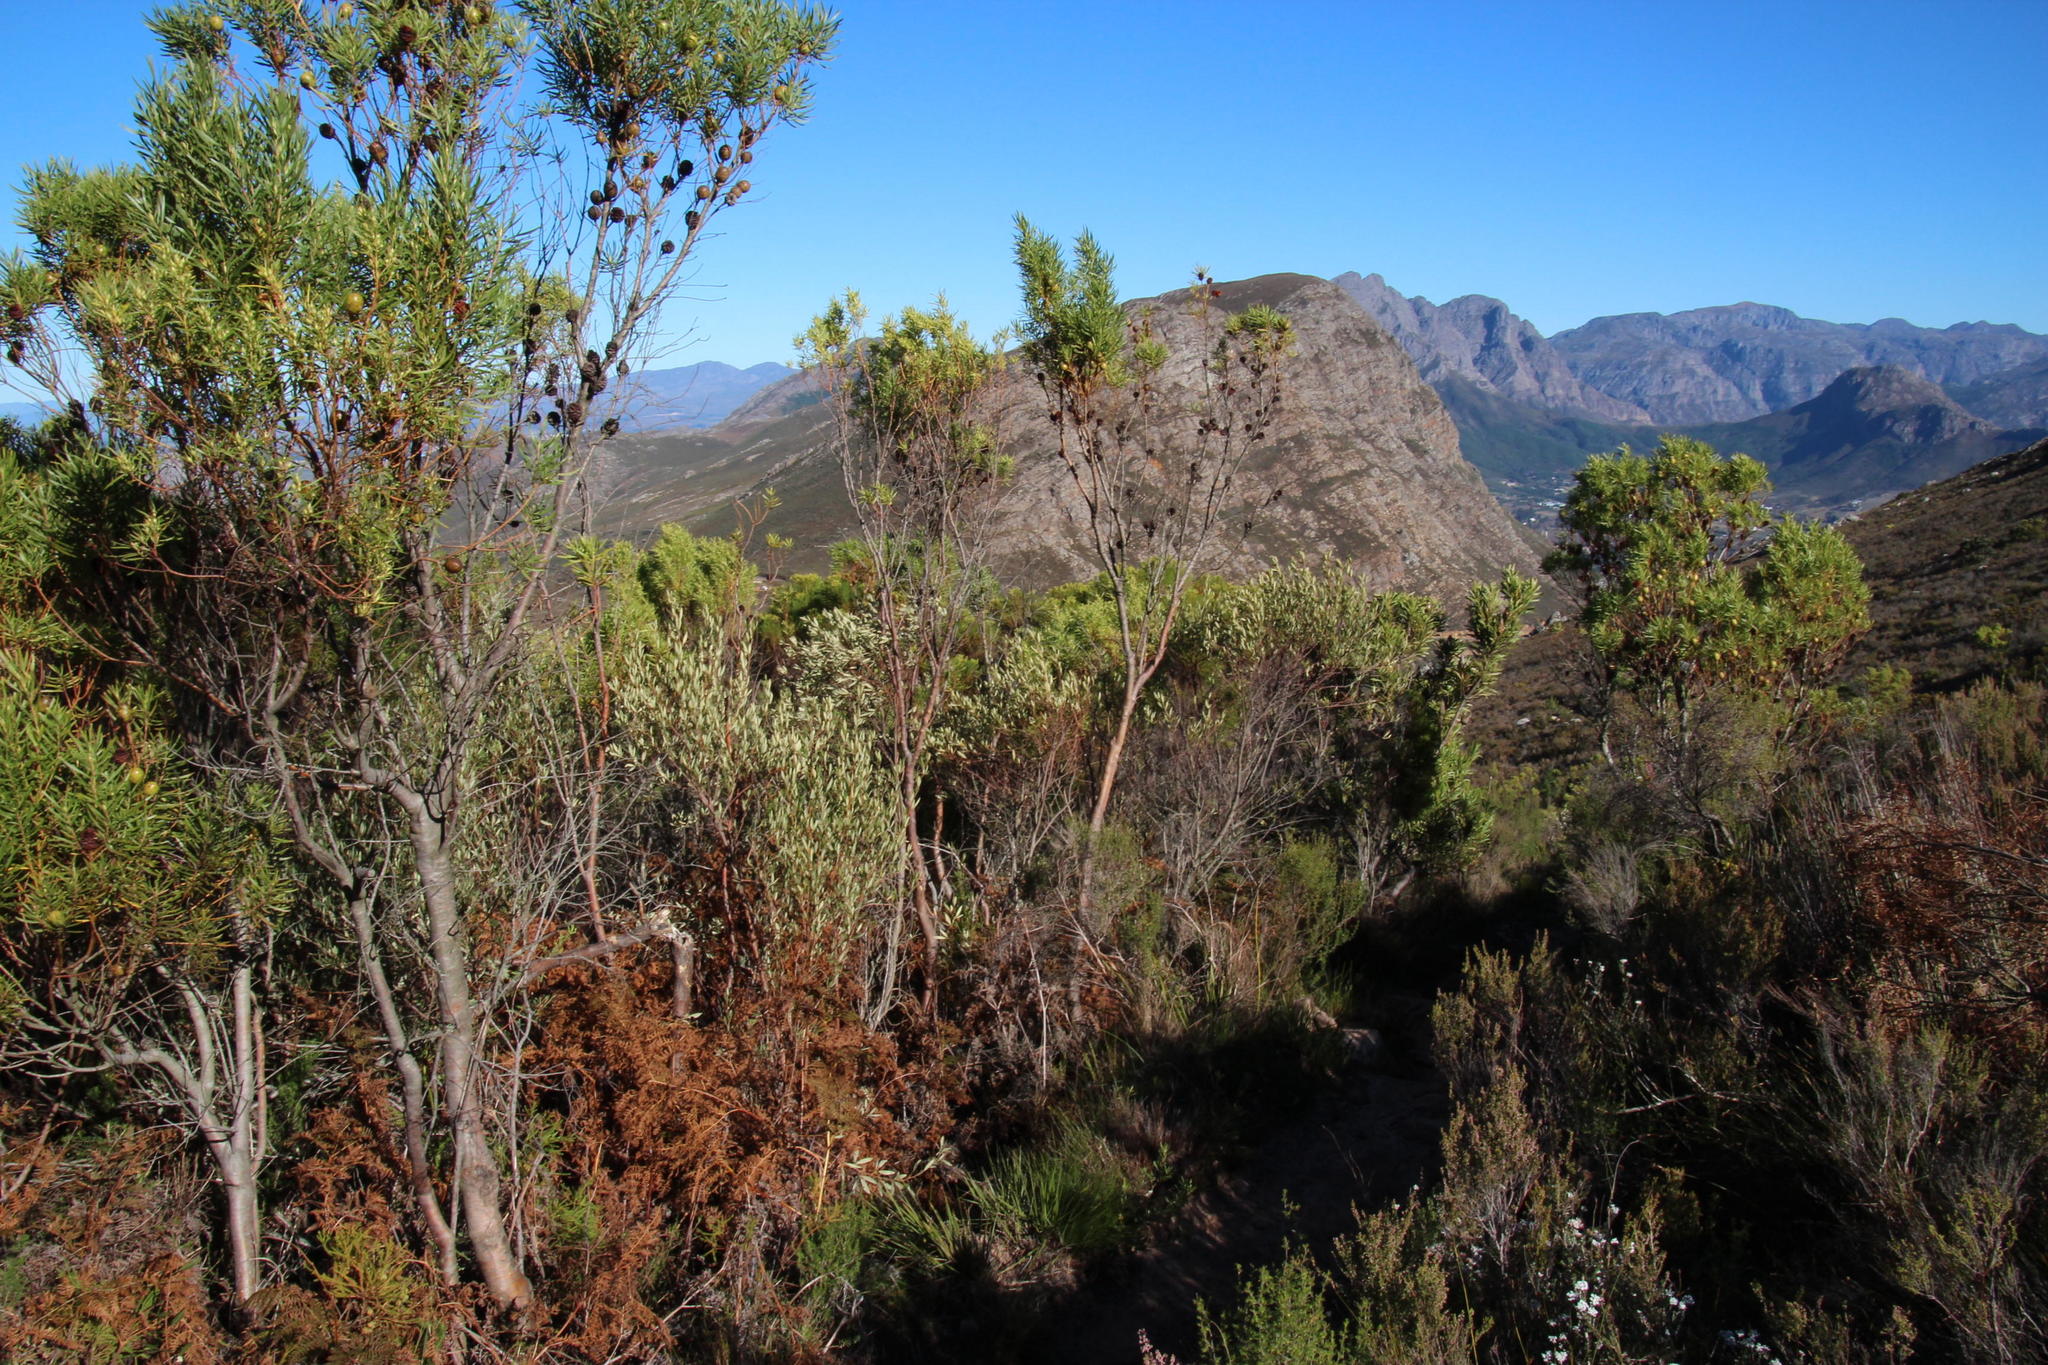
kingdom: Plantae
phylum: Tracheophyta
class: Magnoliopsida
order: Proteales
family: Proteaceae
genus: Leucadendron
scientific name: Leucadendron salicifolium
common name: Common stream conebush
